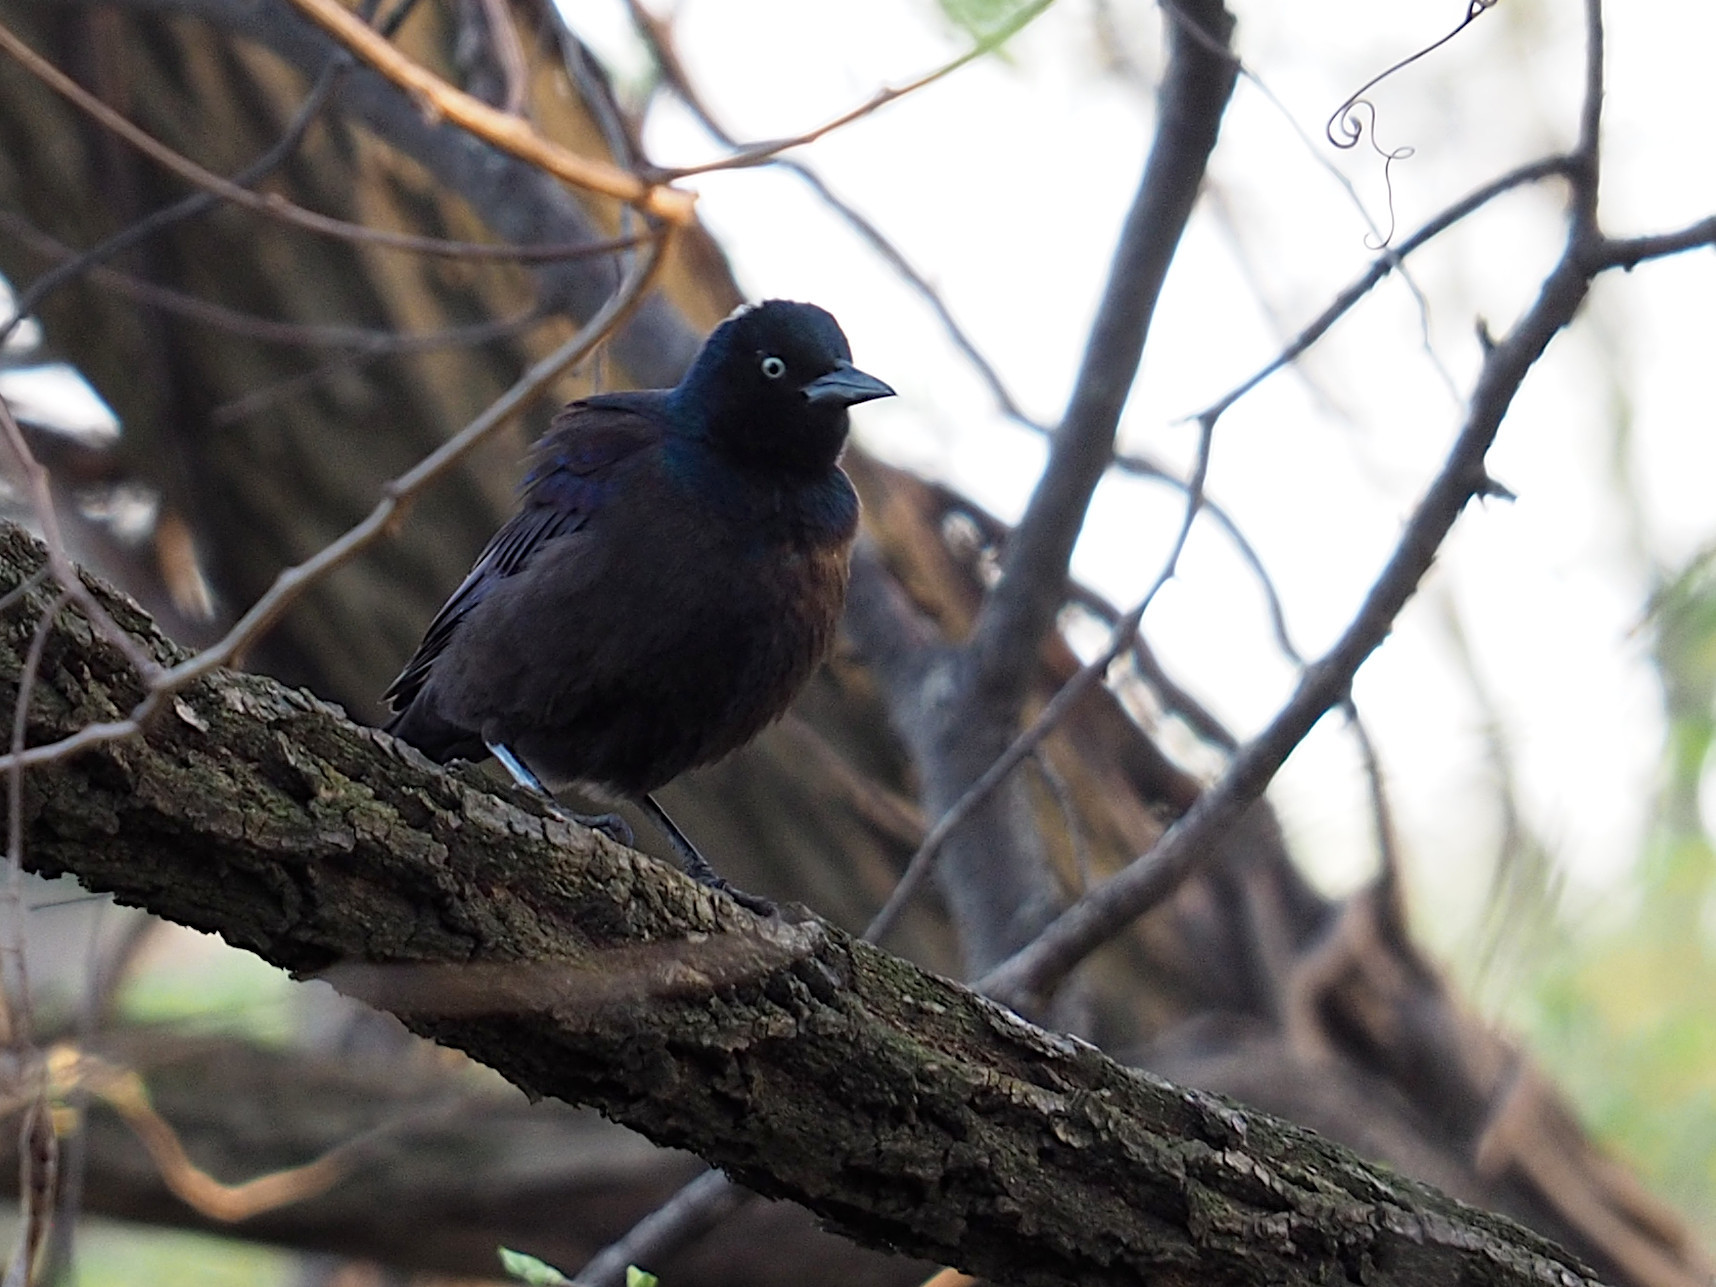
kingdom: Animalia
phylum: Chordata
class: Aves
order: Passeriformes
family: Icteridae
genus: Quiscalus
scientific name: Quiscalus quiscula
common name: Common grackle
